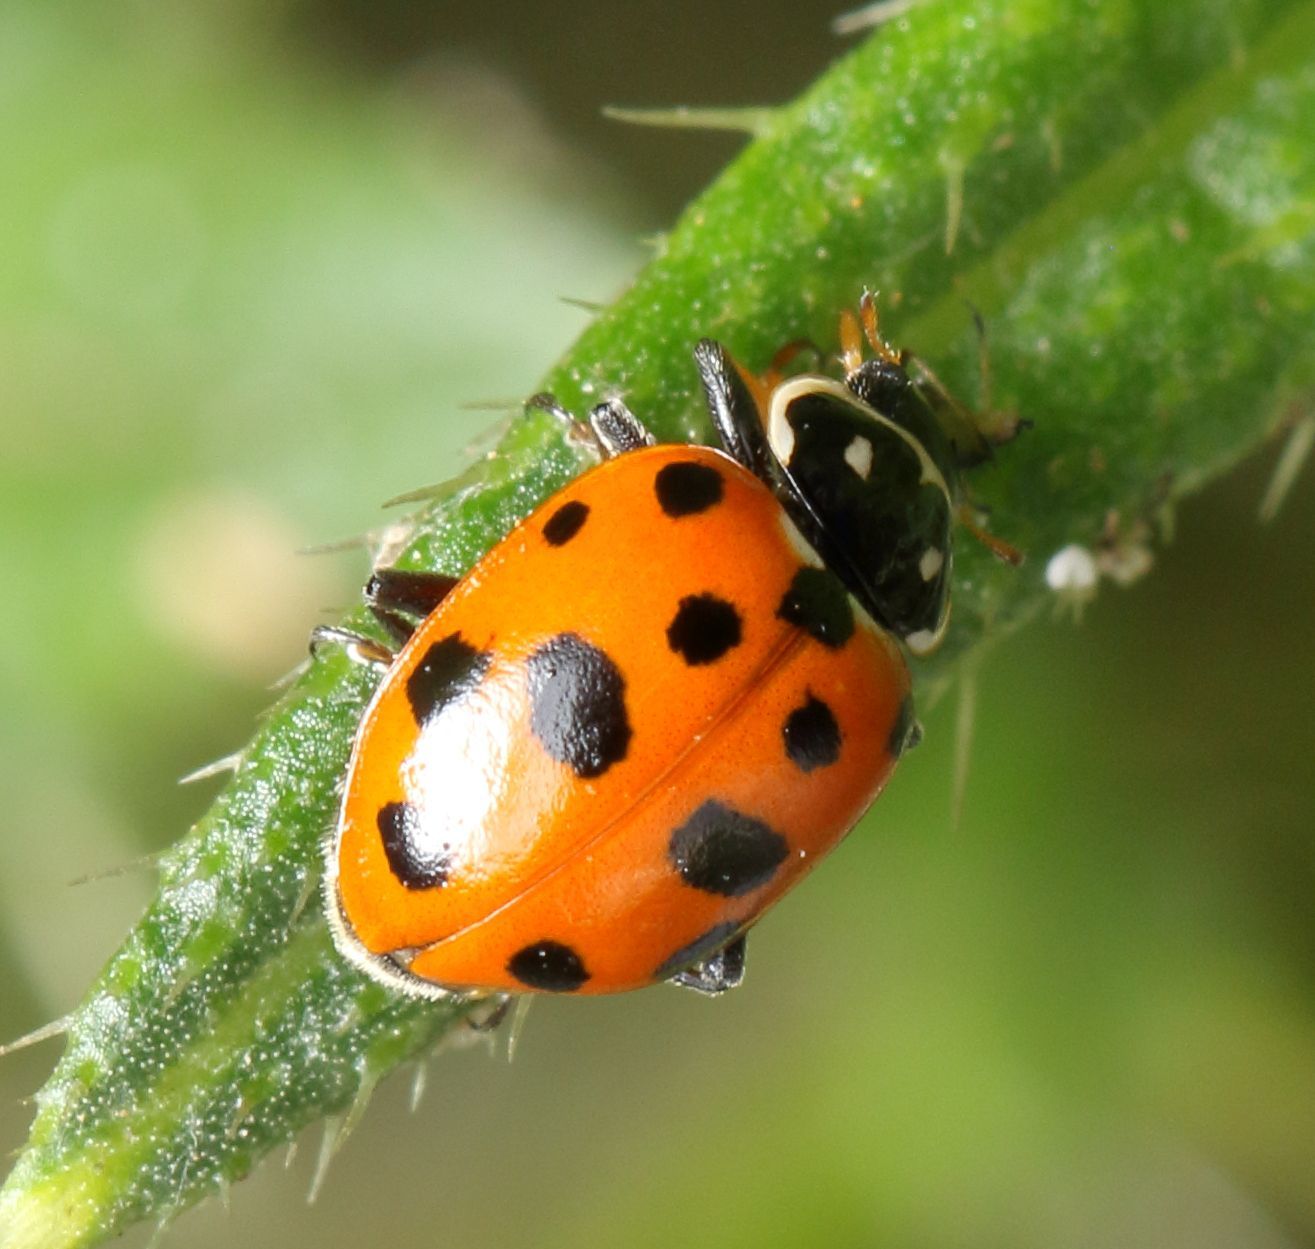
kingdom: Animalia
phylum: Arthropoda
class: Insecta
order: Coleoptera
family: Coccinellidae
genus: Hippodamia
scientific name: Hippodamia variegata
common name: Ladybird beetle
